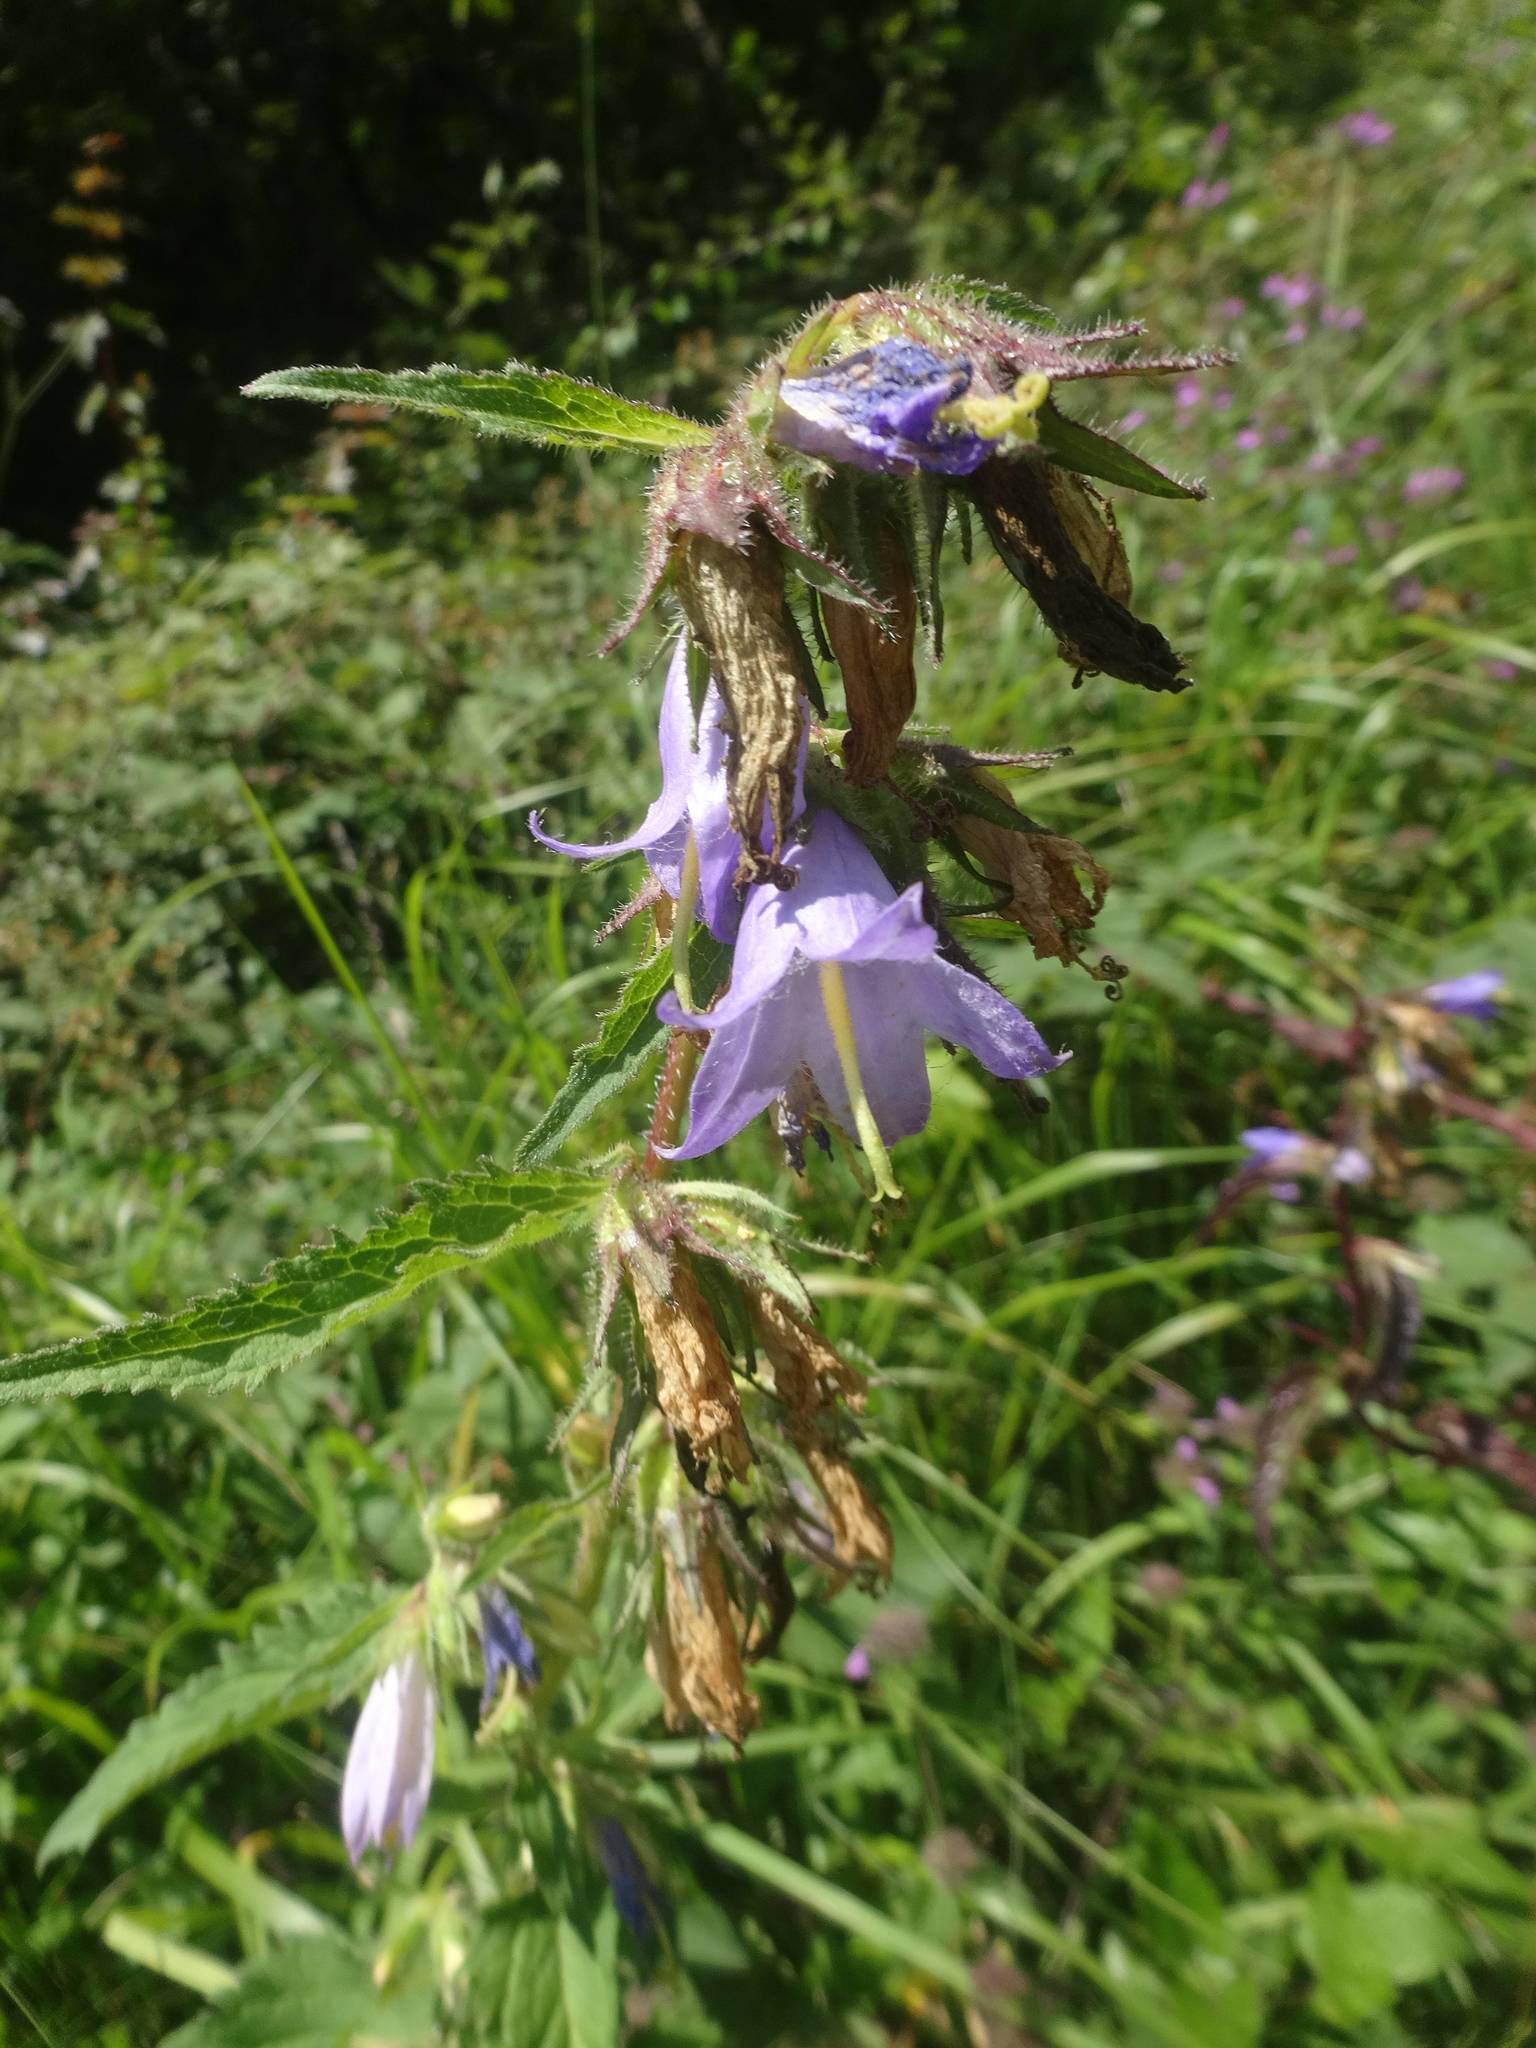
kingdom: Plantae
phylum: Tracheophyta
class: Magnoliopsida
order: Asterales
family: Campanulaceae
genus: Campanula
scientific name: Campanula trachelium
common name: Nettle-leaved bellflower
